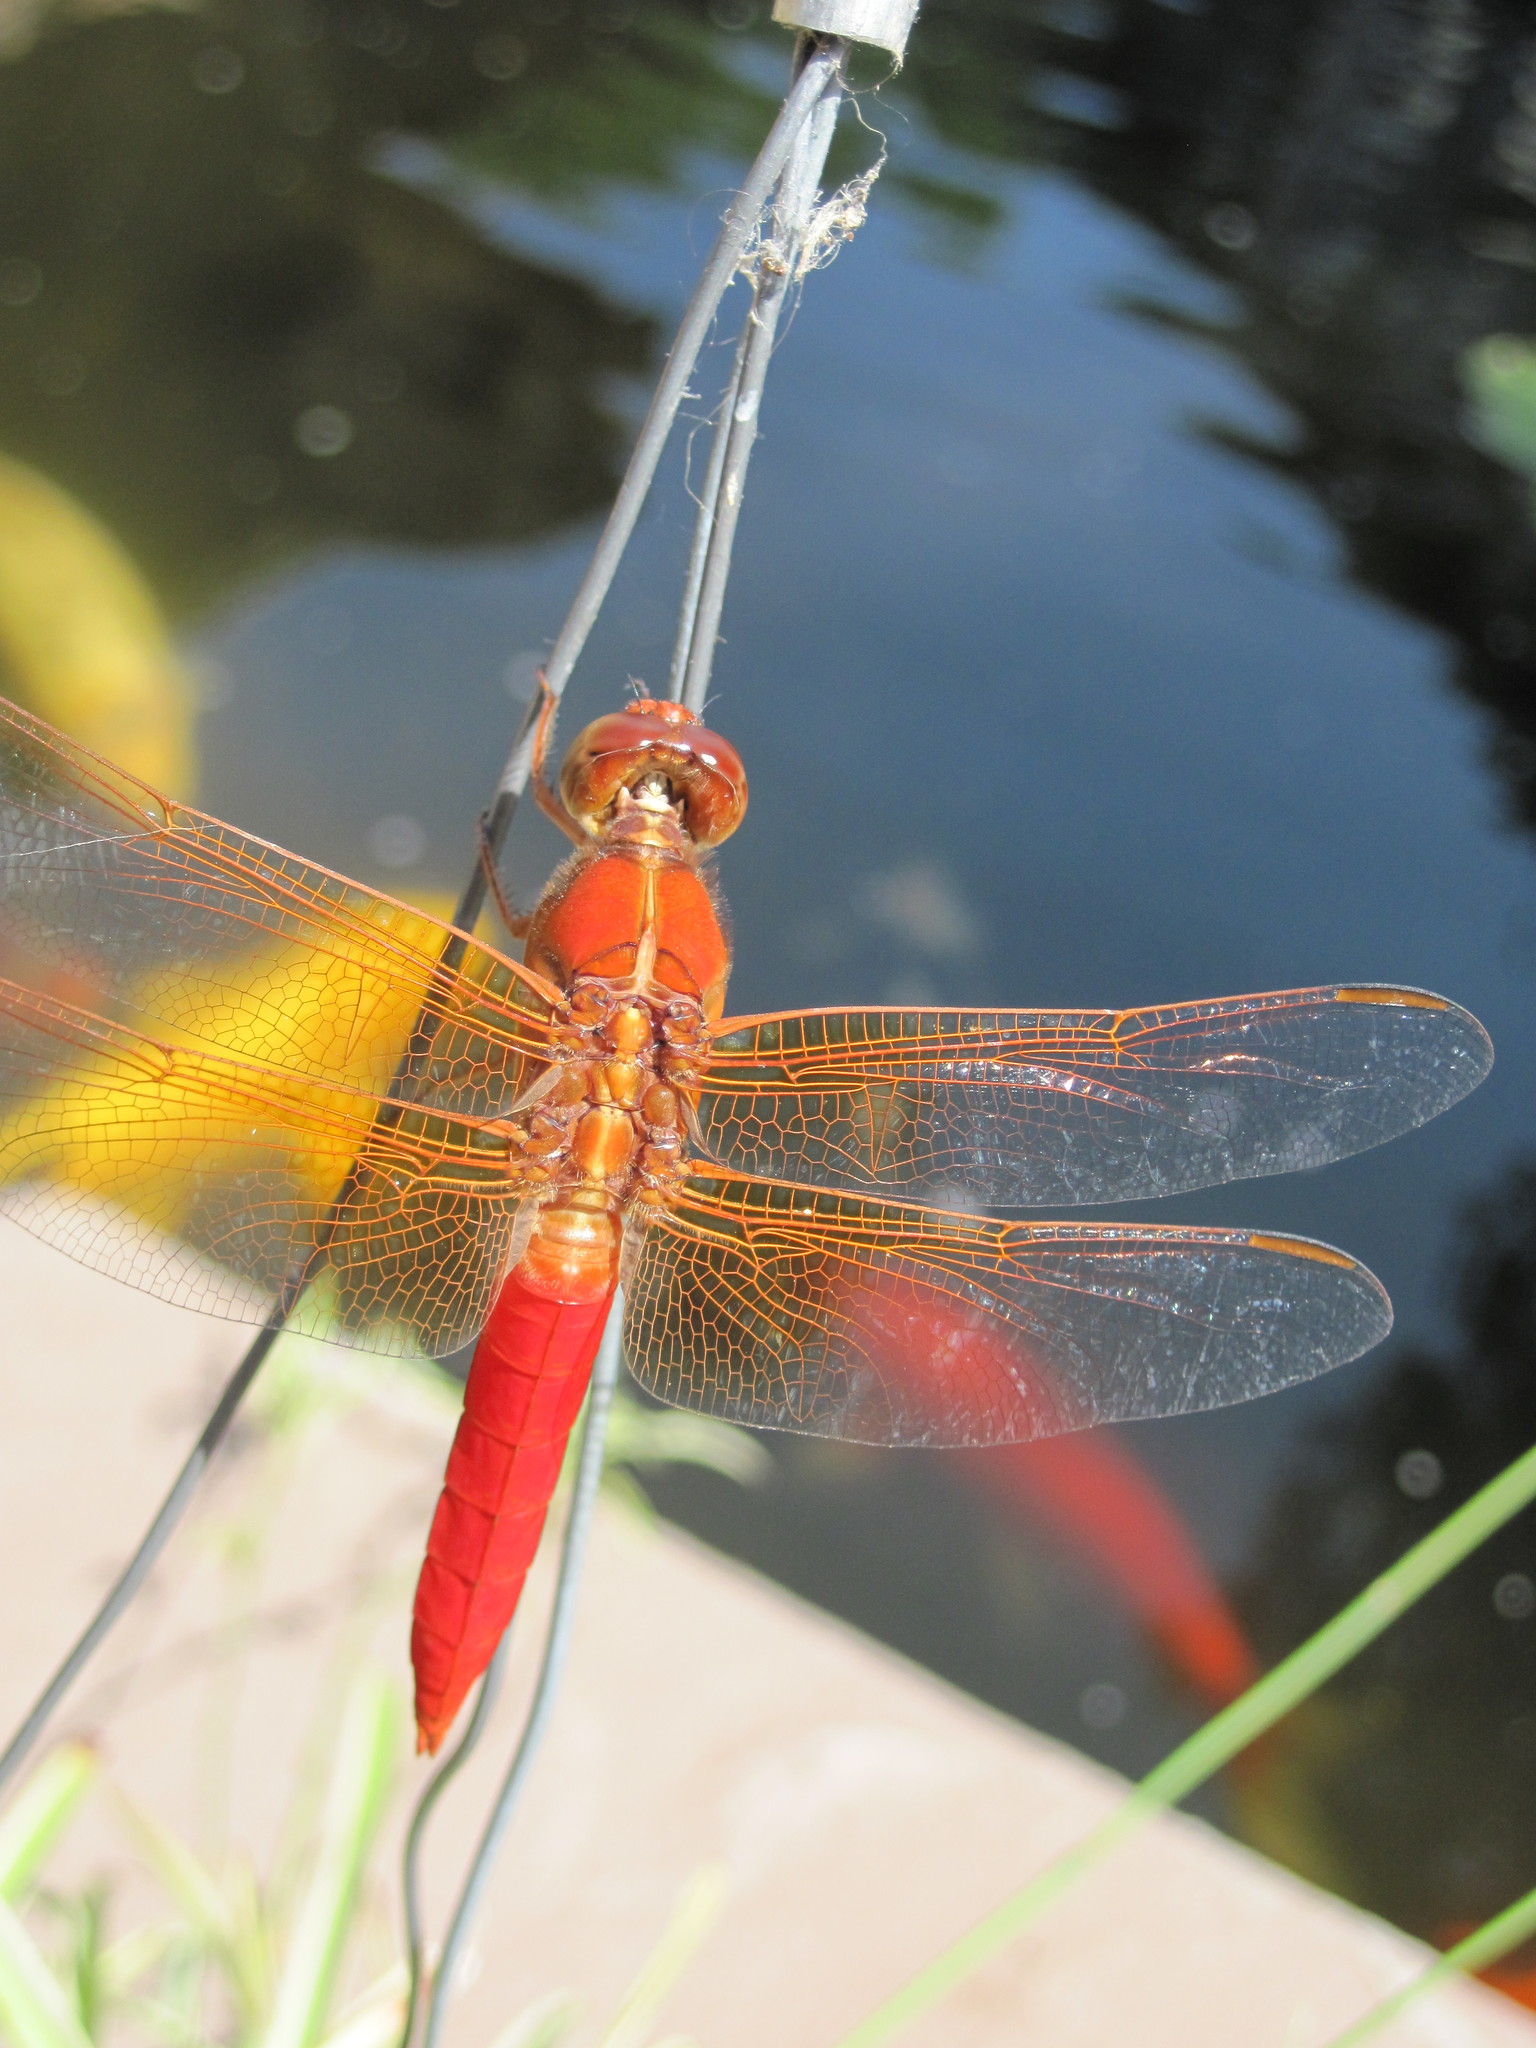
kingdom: Animalia
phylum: Arthropoda
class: Insecta
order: Odonata
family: Libellulidae
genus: Libellula
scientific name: Libellula croceipennis
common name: Neon skimmer
